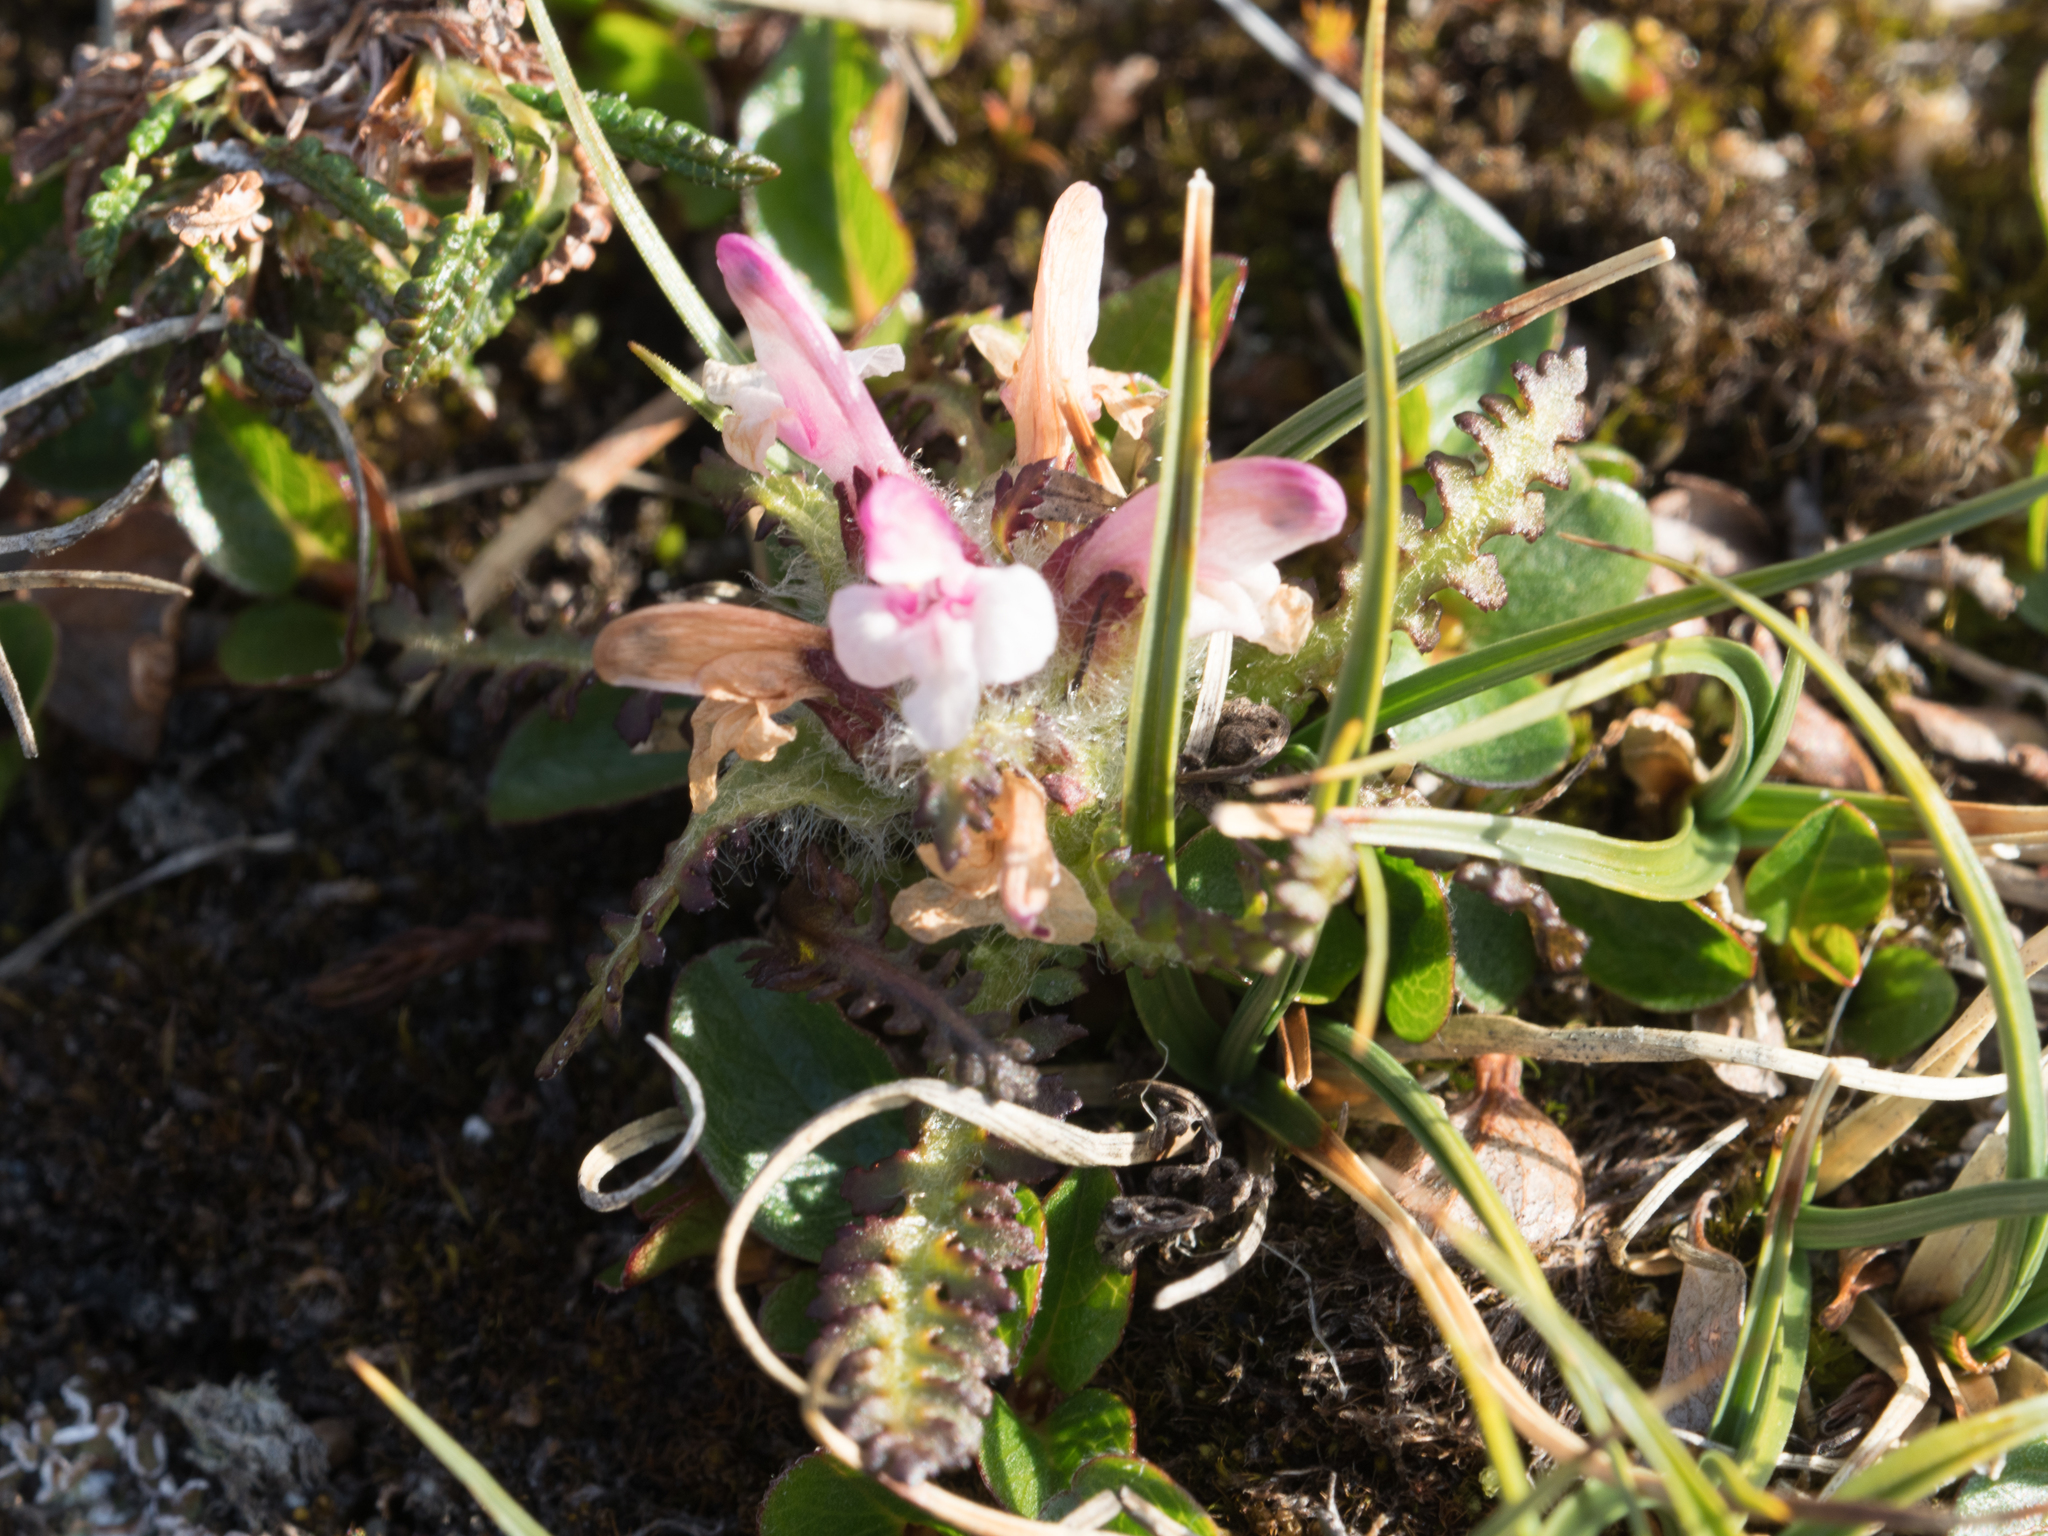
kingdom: Plantae
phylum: Tracheophyta
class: Magnoliopsida
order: Lamiales
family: Orobanchaceae
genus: Pedicularis
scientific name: Pedicularis hirsuta
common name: Hairy lousewort
